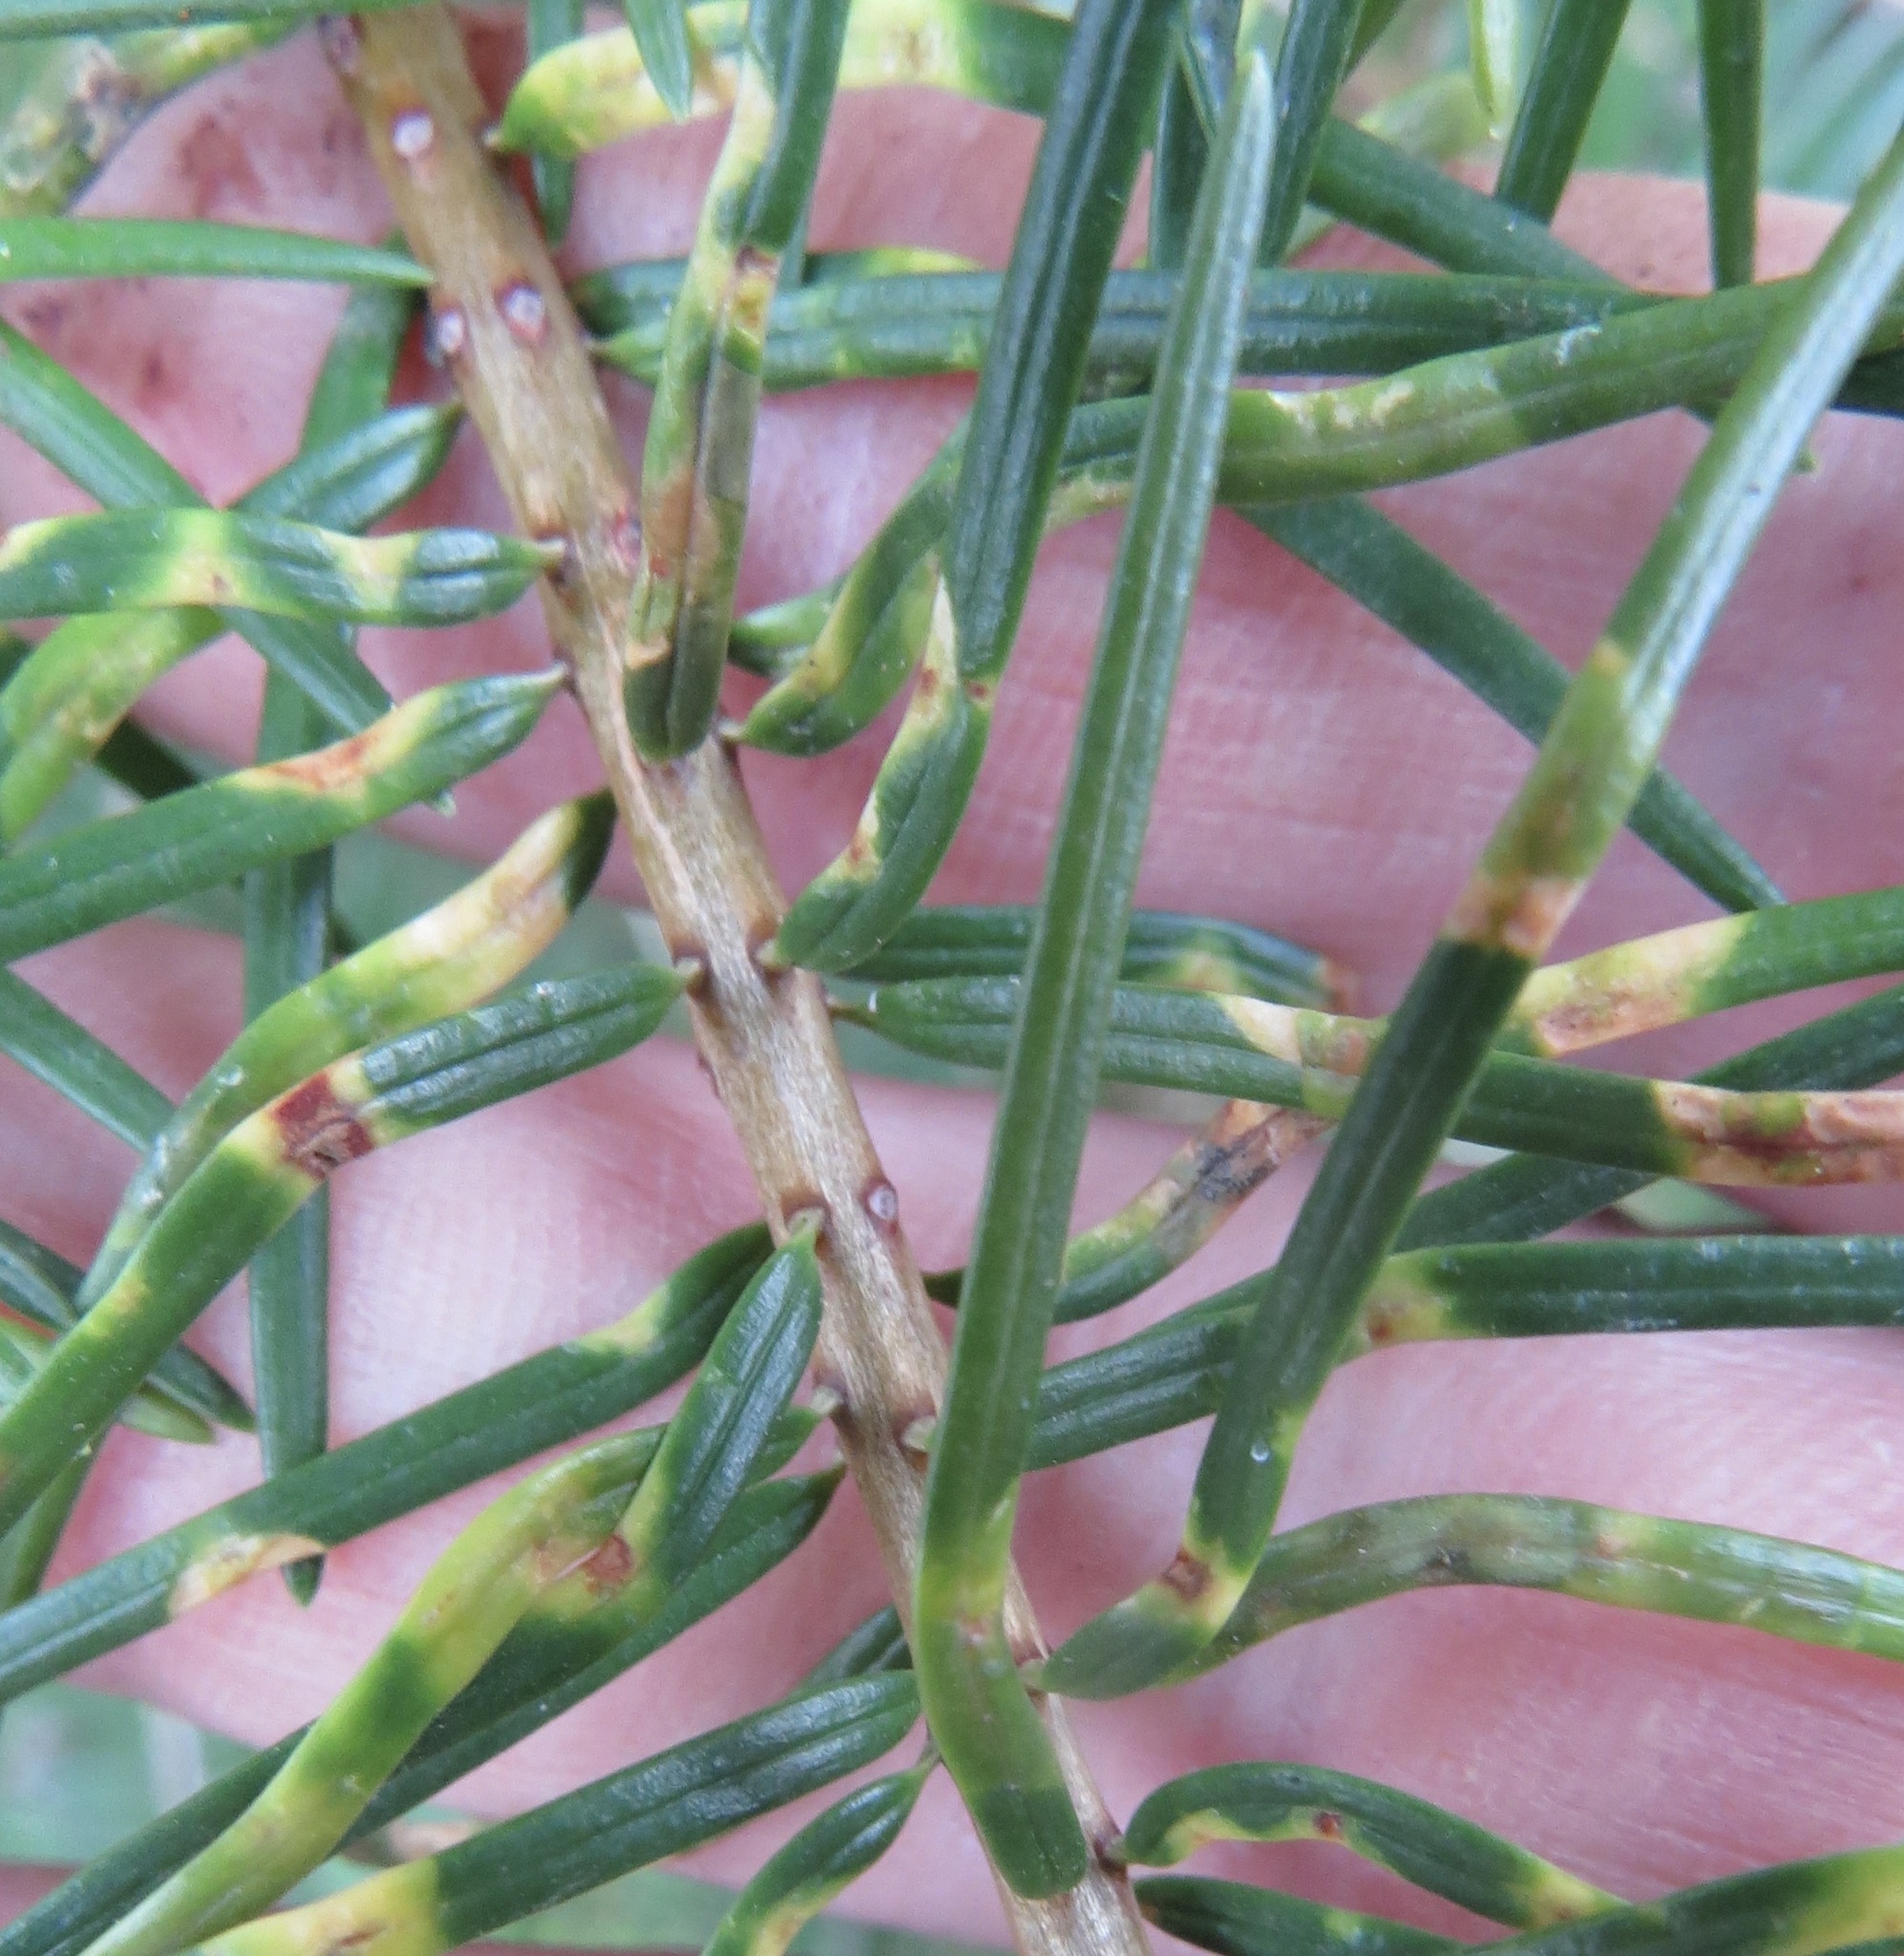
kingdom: Animalia
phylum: Arthropoda
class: Insecta
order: Diptera
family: Cecidomyiidae
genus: Contarinia
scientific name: Contarinia pseudotsugae
